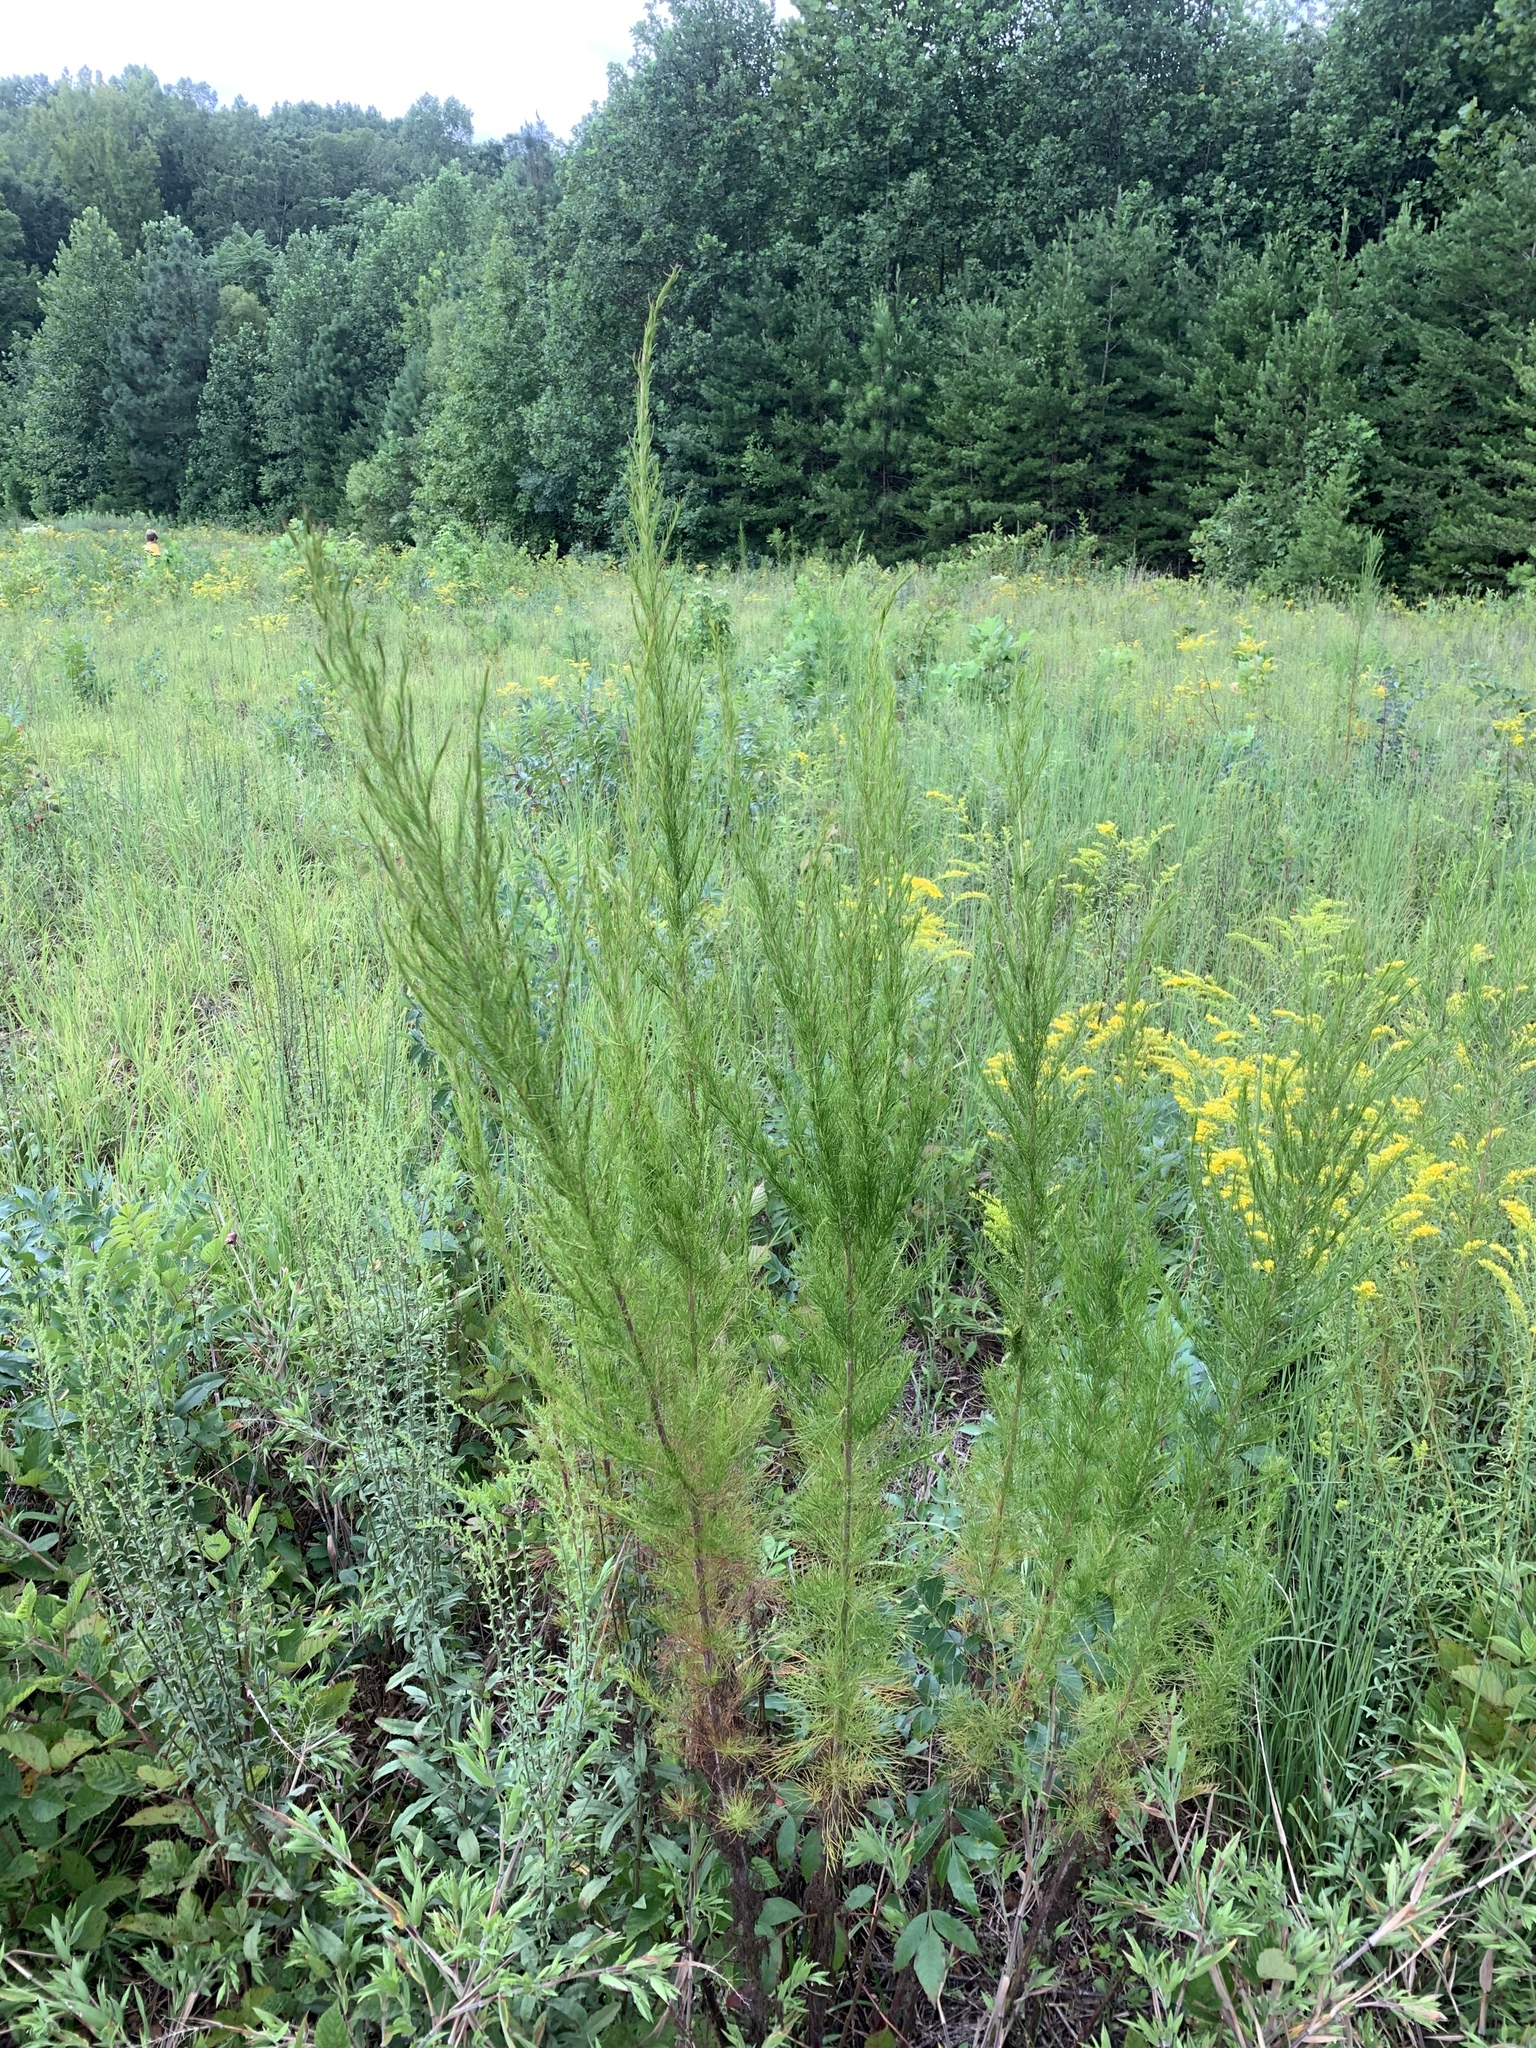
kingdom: Plantae
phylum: Tracheophyta
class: Magnoliopsida
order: Asterales
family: Asteraceae
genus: Eupatorium
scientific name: Eupatorium capillifolium
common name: Dog-fennel
